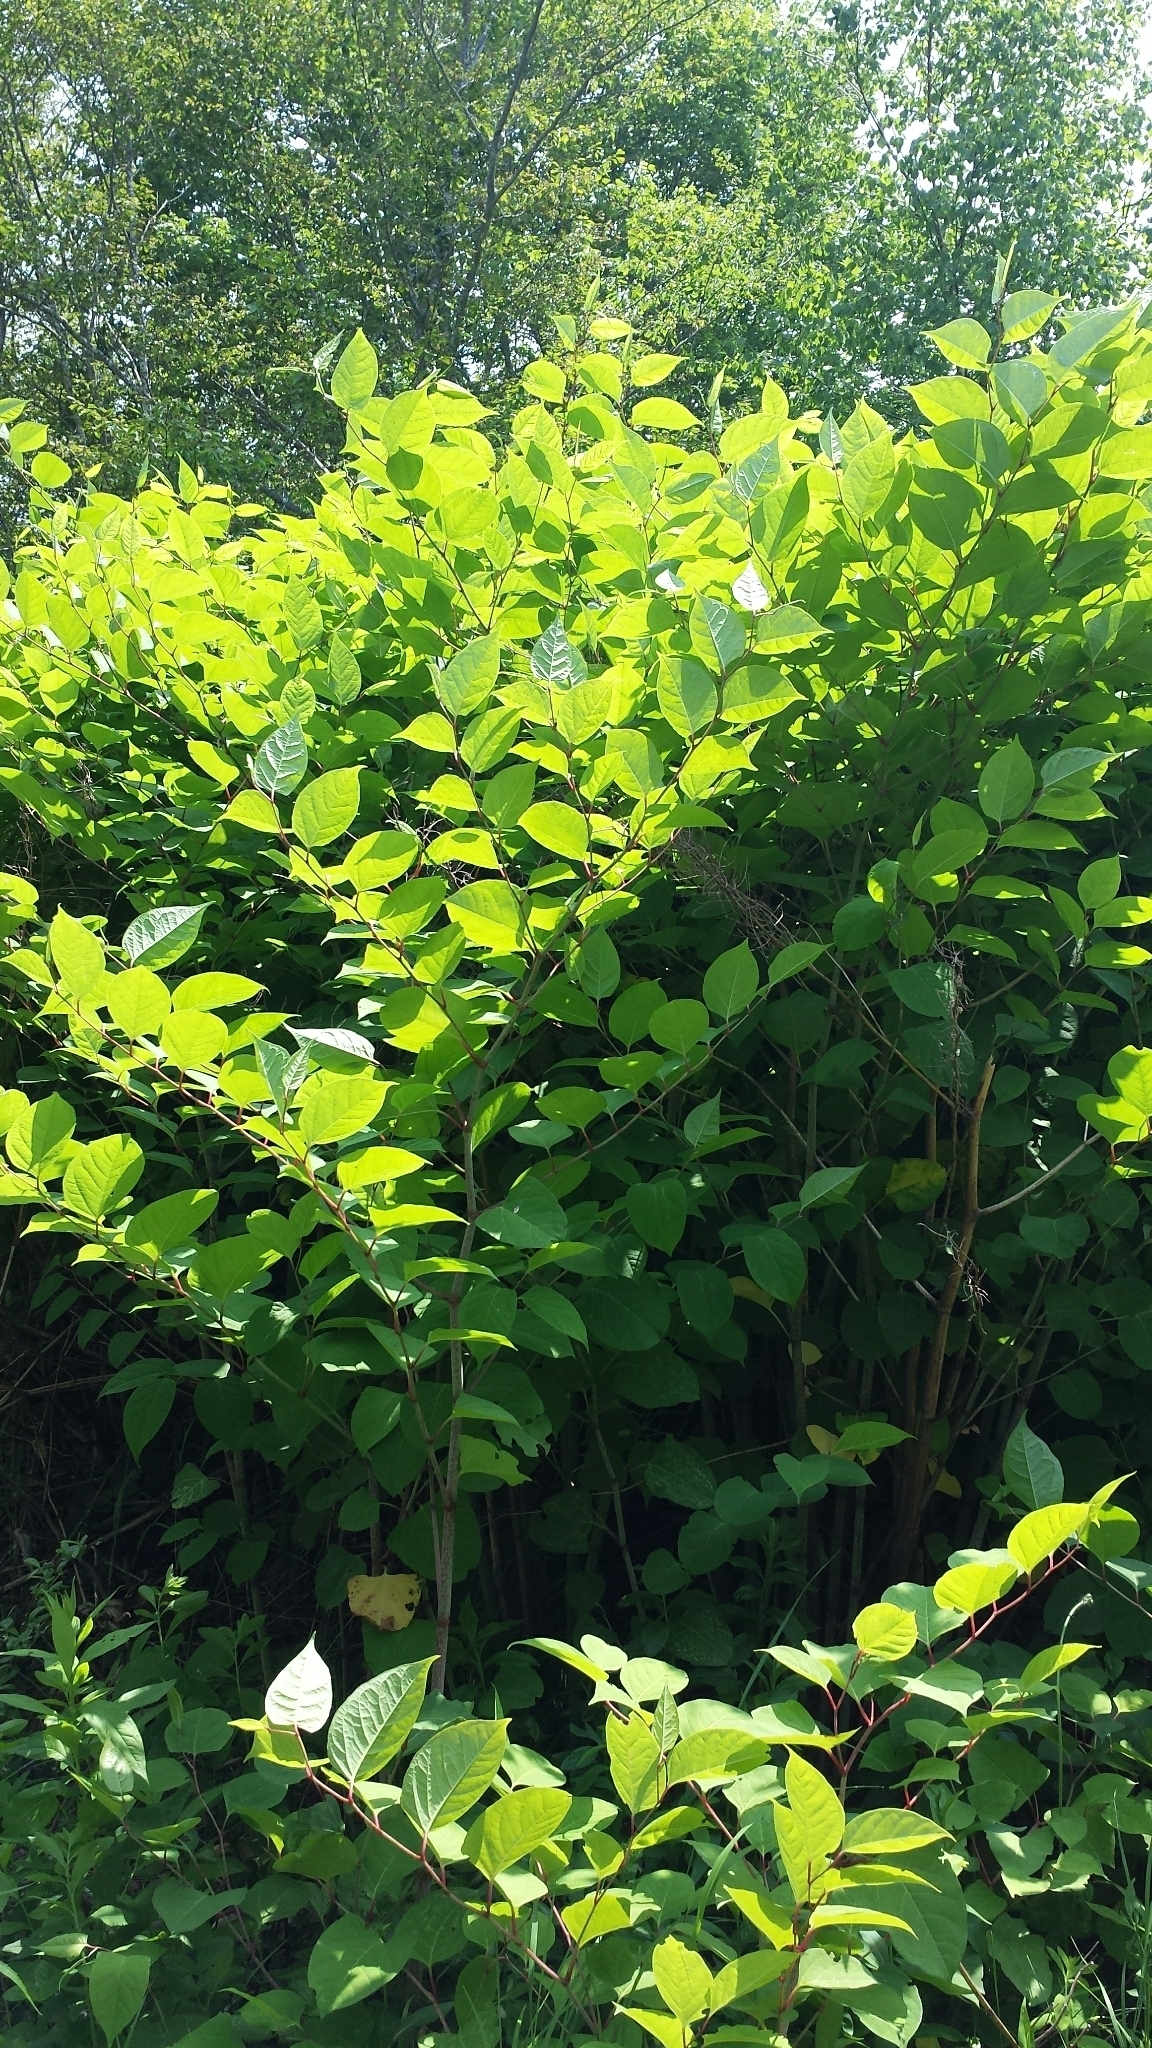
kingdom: Plantae
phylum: Tracheophyta
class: Magnoliopsida
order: Caryophyllales
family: Polygonaceae
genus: Reynoutria
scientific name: Reynoutria japonica
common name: Japanese knotweed
